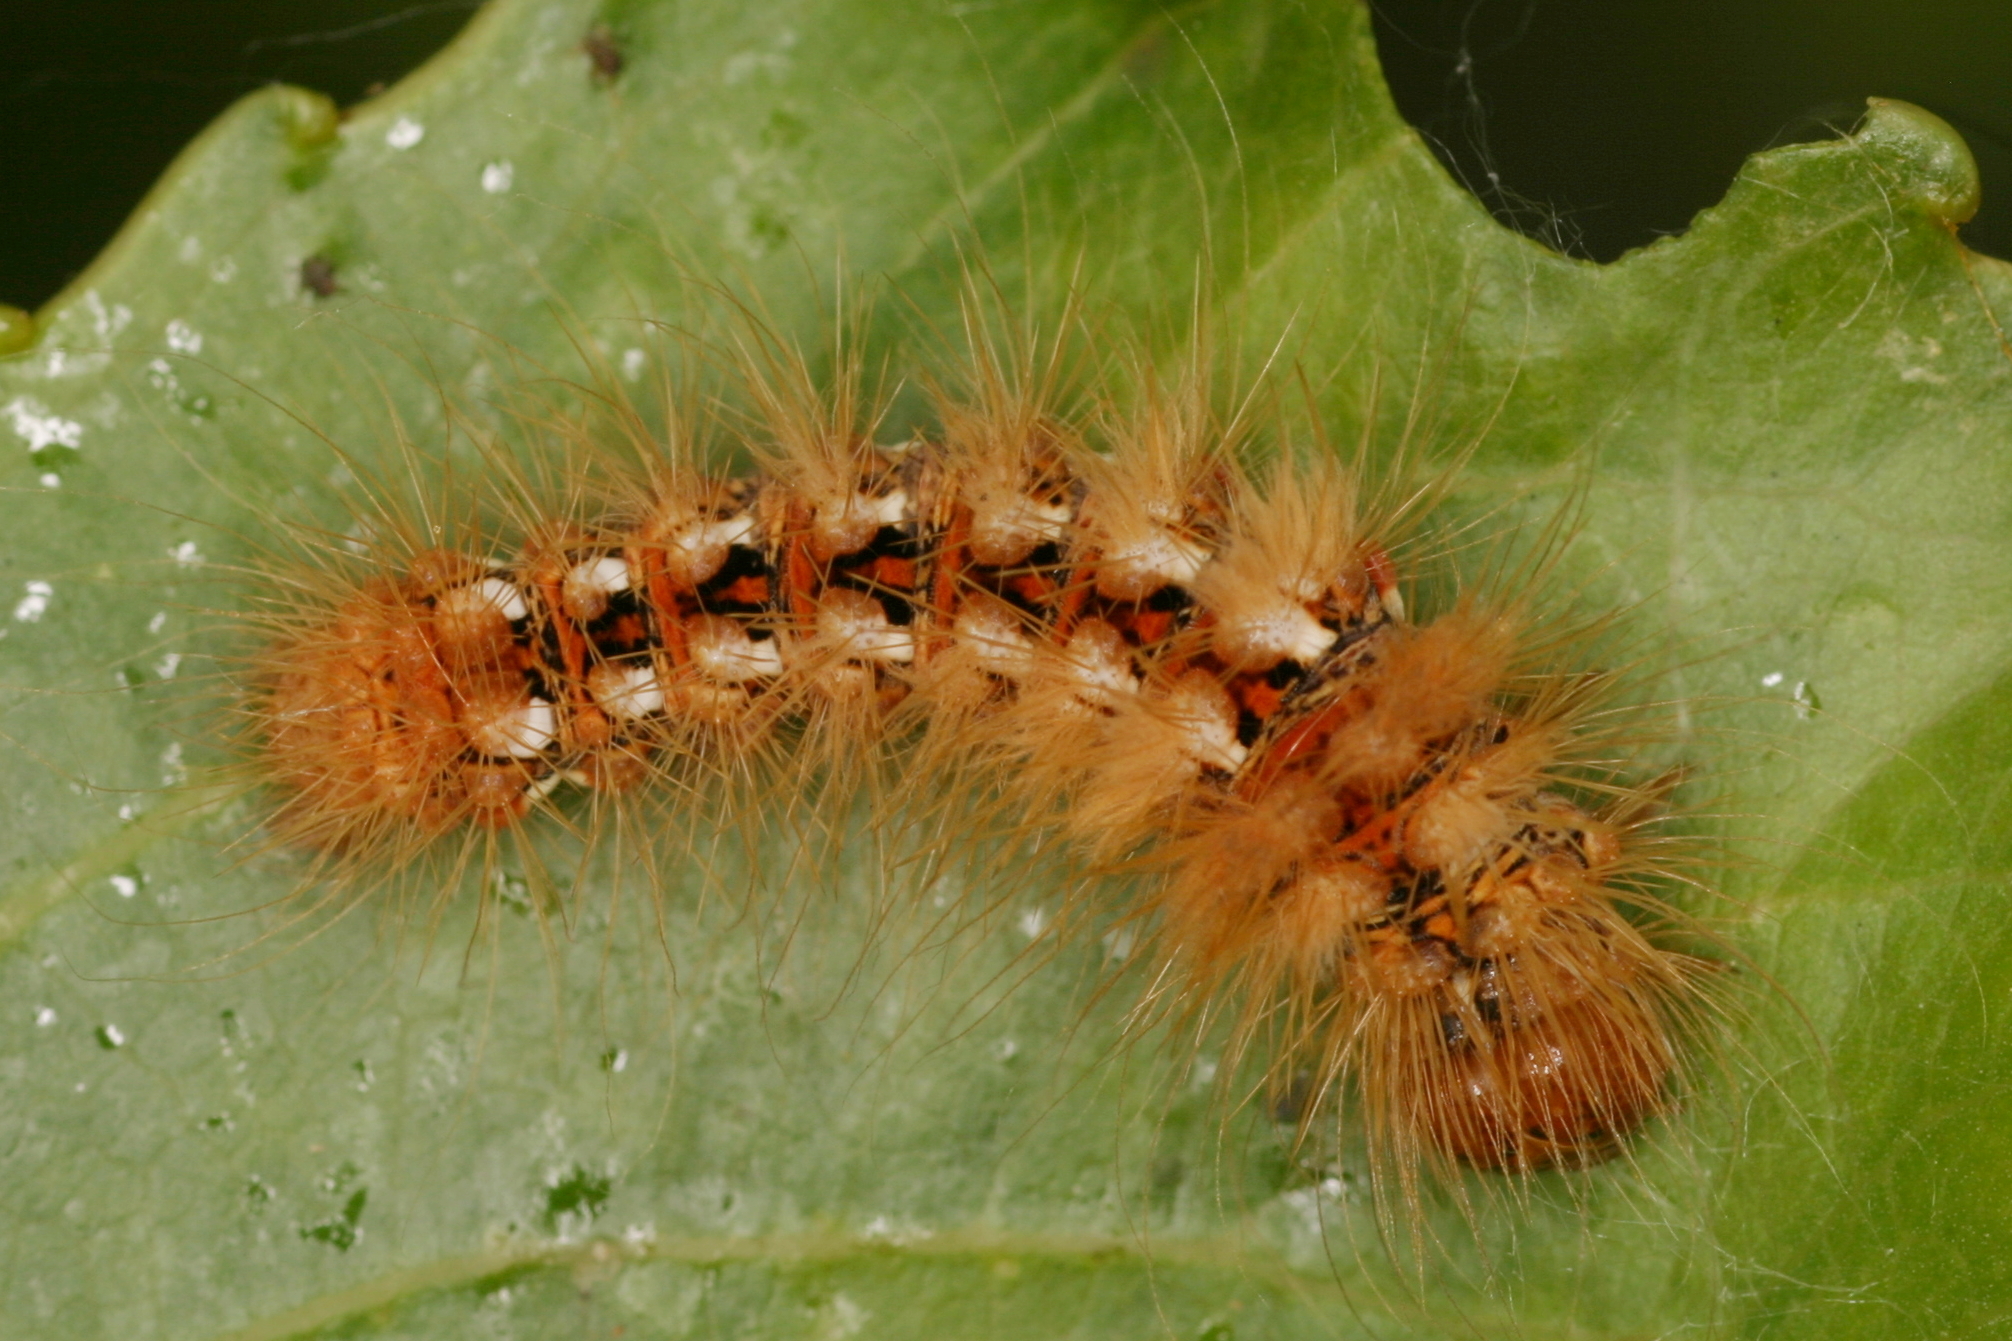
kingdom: Animalia
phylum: Arthropoda
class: Insecta
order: Lepidoptera
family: Noctuidae
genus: Acronicta
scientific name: Acronicta rumicis
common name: Knot grass
